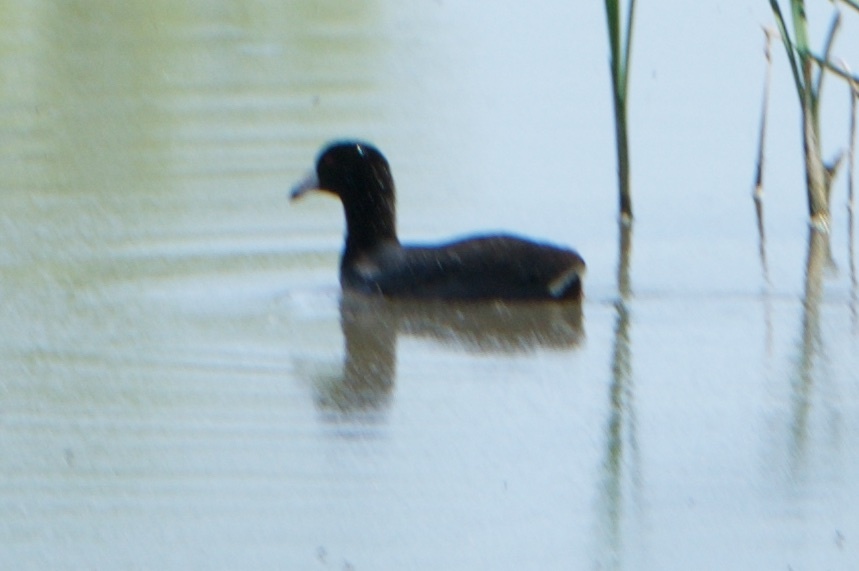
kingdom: Animalia
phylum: Chordata
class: Aves
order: Gruiformes
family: Rallidae
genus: Fulica
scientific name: Fulica americana
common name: American coot
